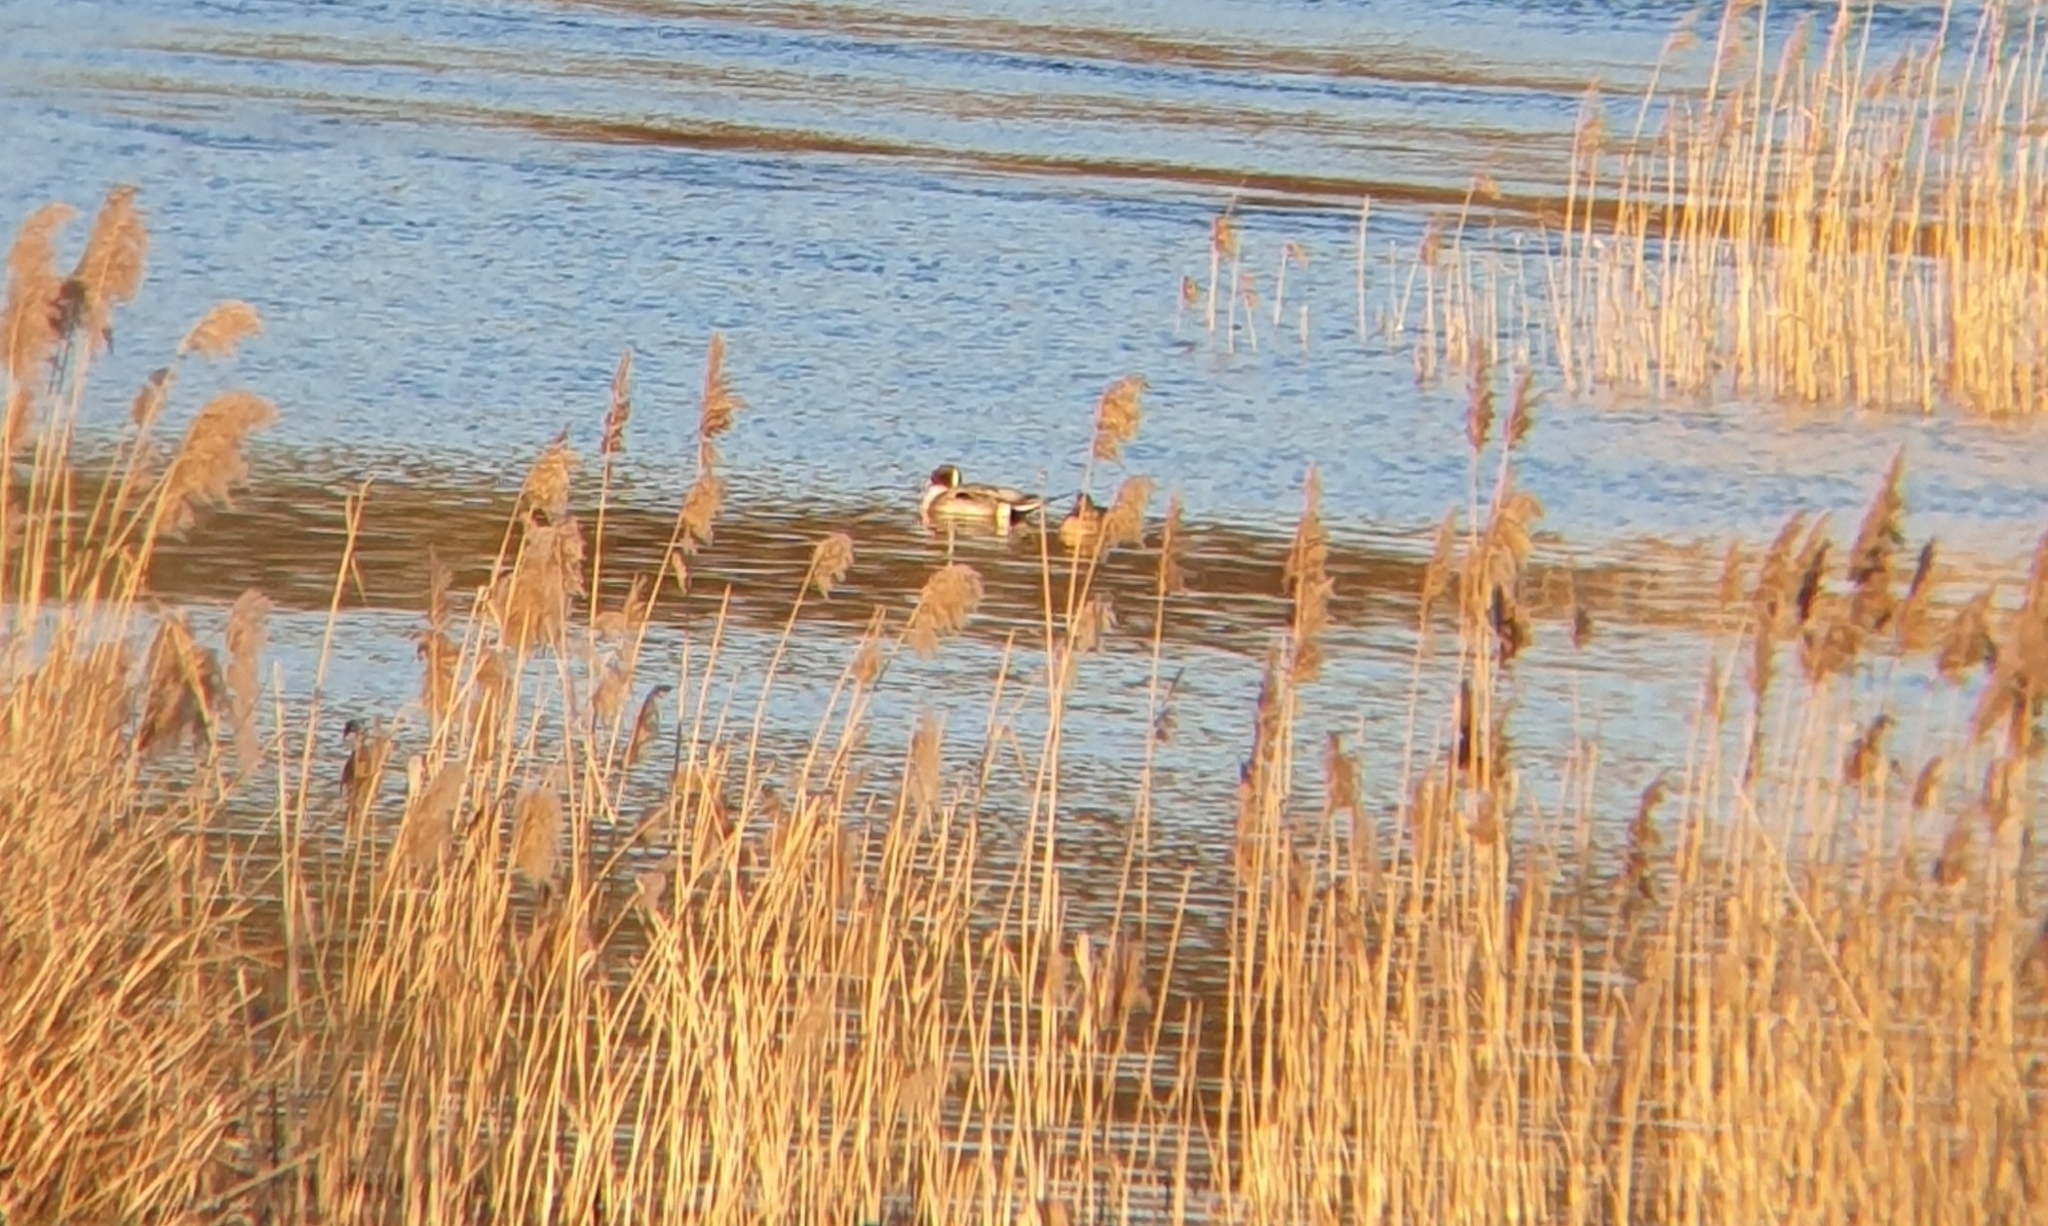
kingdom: Animalia
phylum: Chordata
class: Aves
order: Anseriformes
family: Anatidae
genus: Anas
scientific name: Anas acuta
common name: Northern pintail
